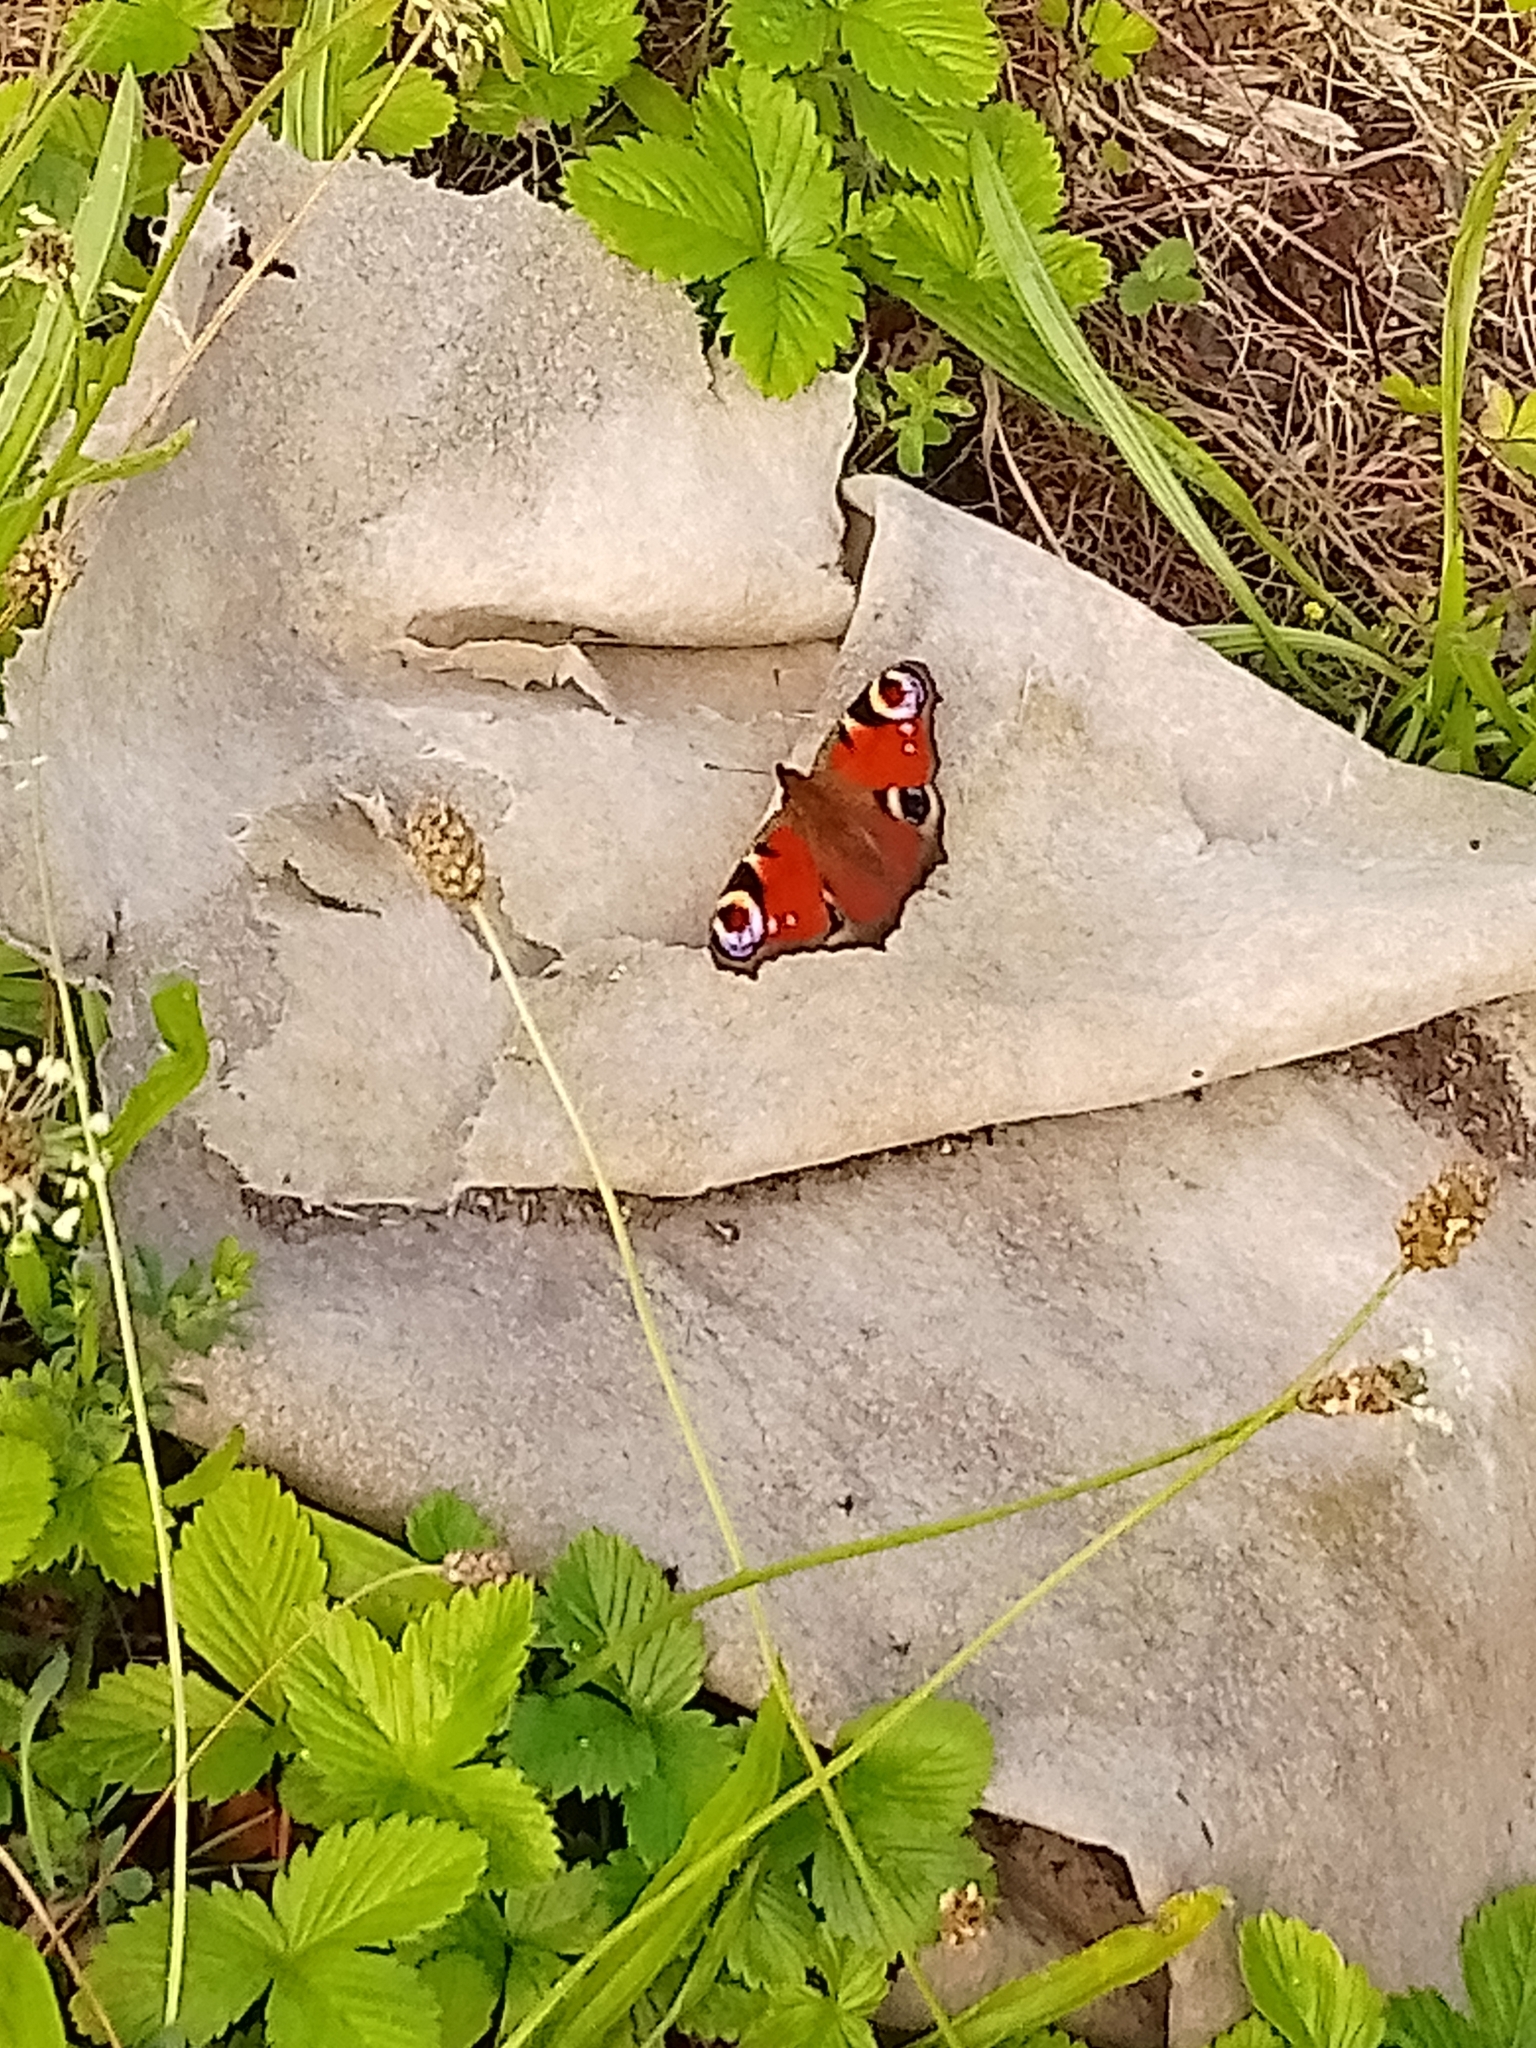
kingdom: Animalia
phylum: Arthropoda
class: Insecta
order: Lepidoptera
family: Nymphalidae
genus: Aglais
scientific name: Aglais io
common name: Peacock
